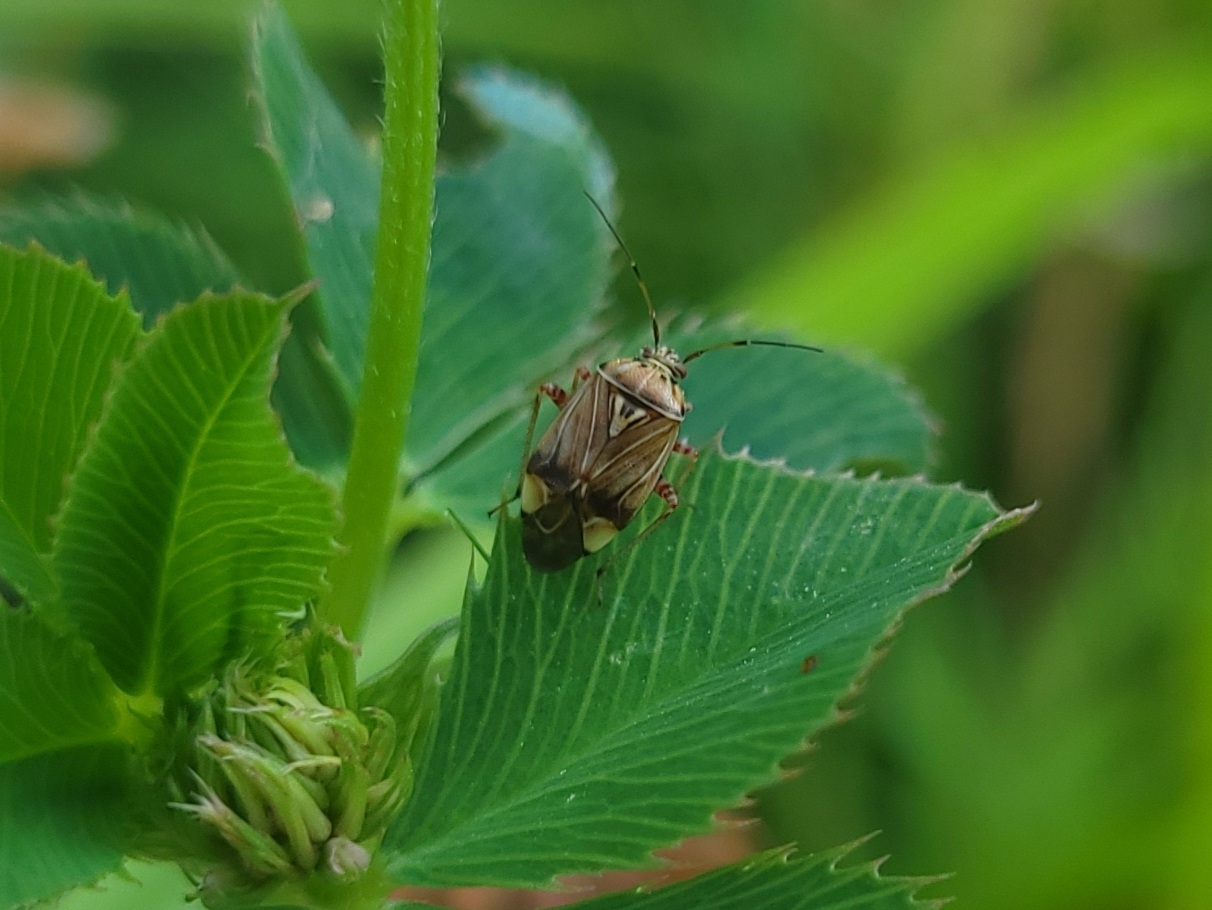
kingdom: Animalia
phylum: Arthropoda
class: Insecta
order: Hemiptera
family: Miridae
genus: Lygus
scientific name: Lygus lineolaris
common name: North american tarnished plant bug
